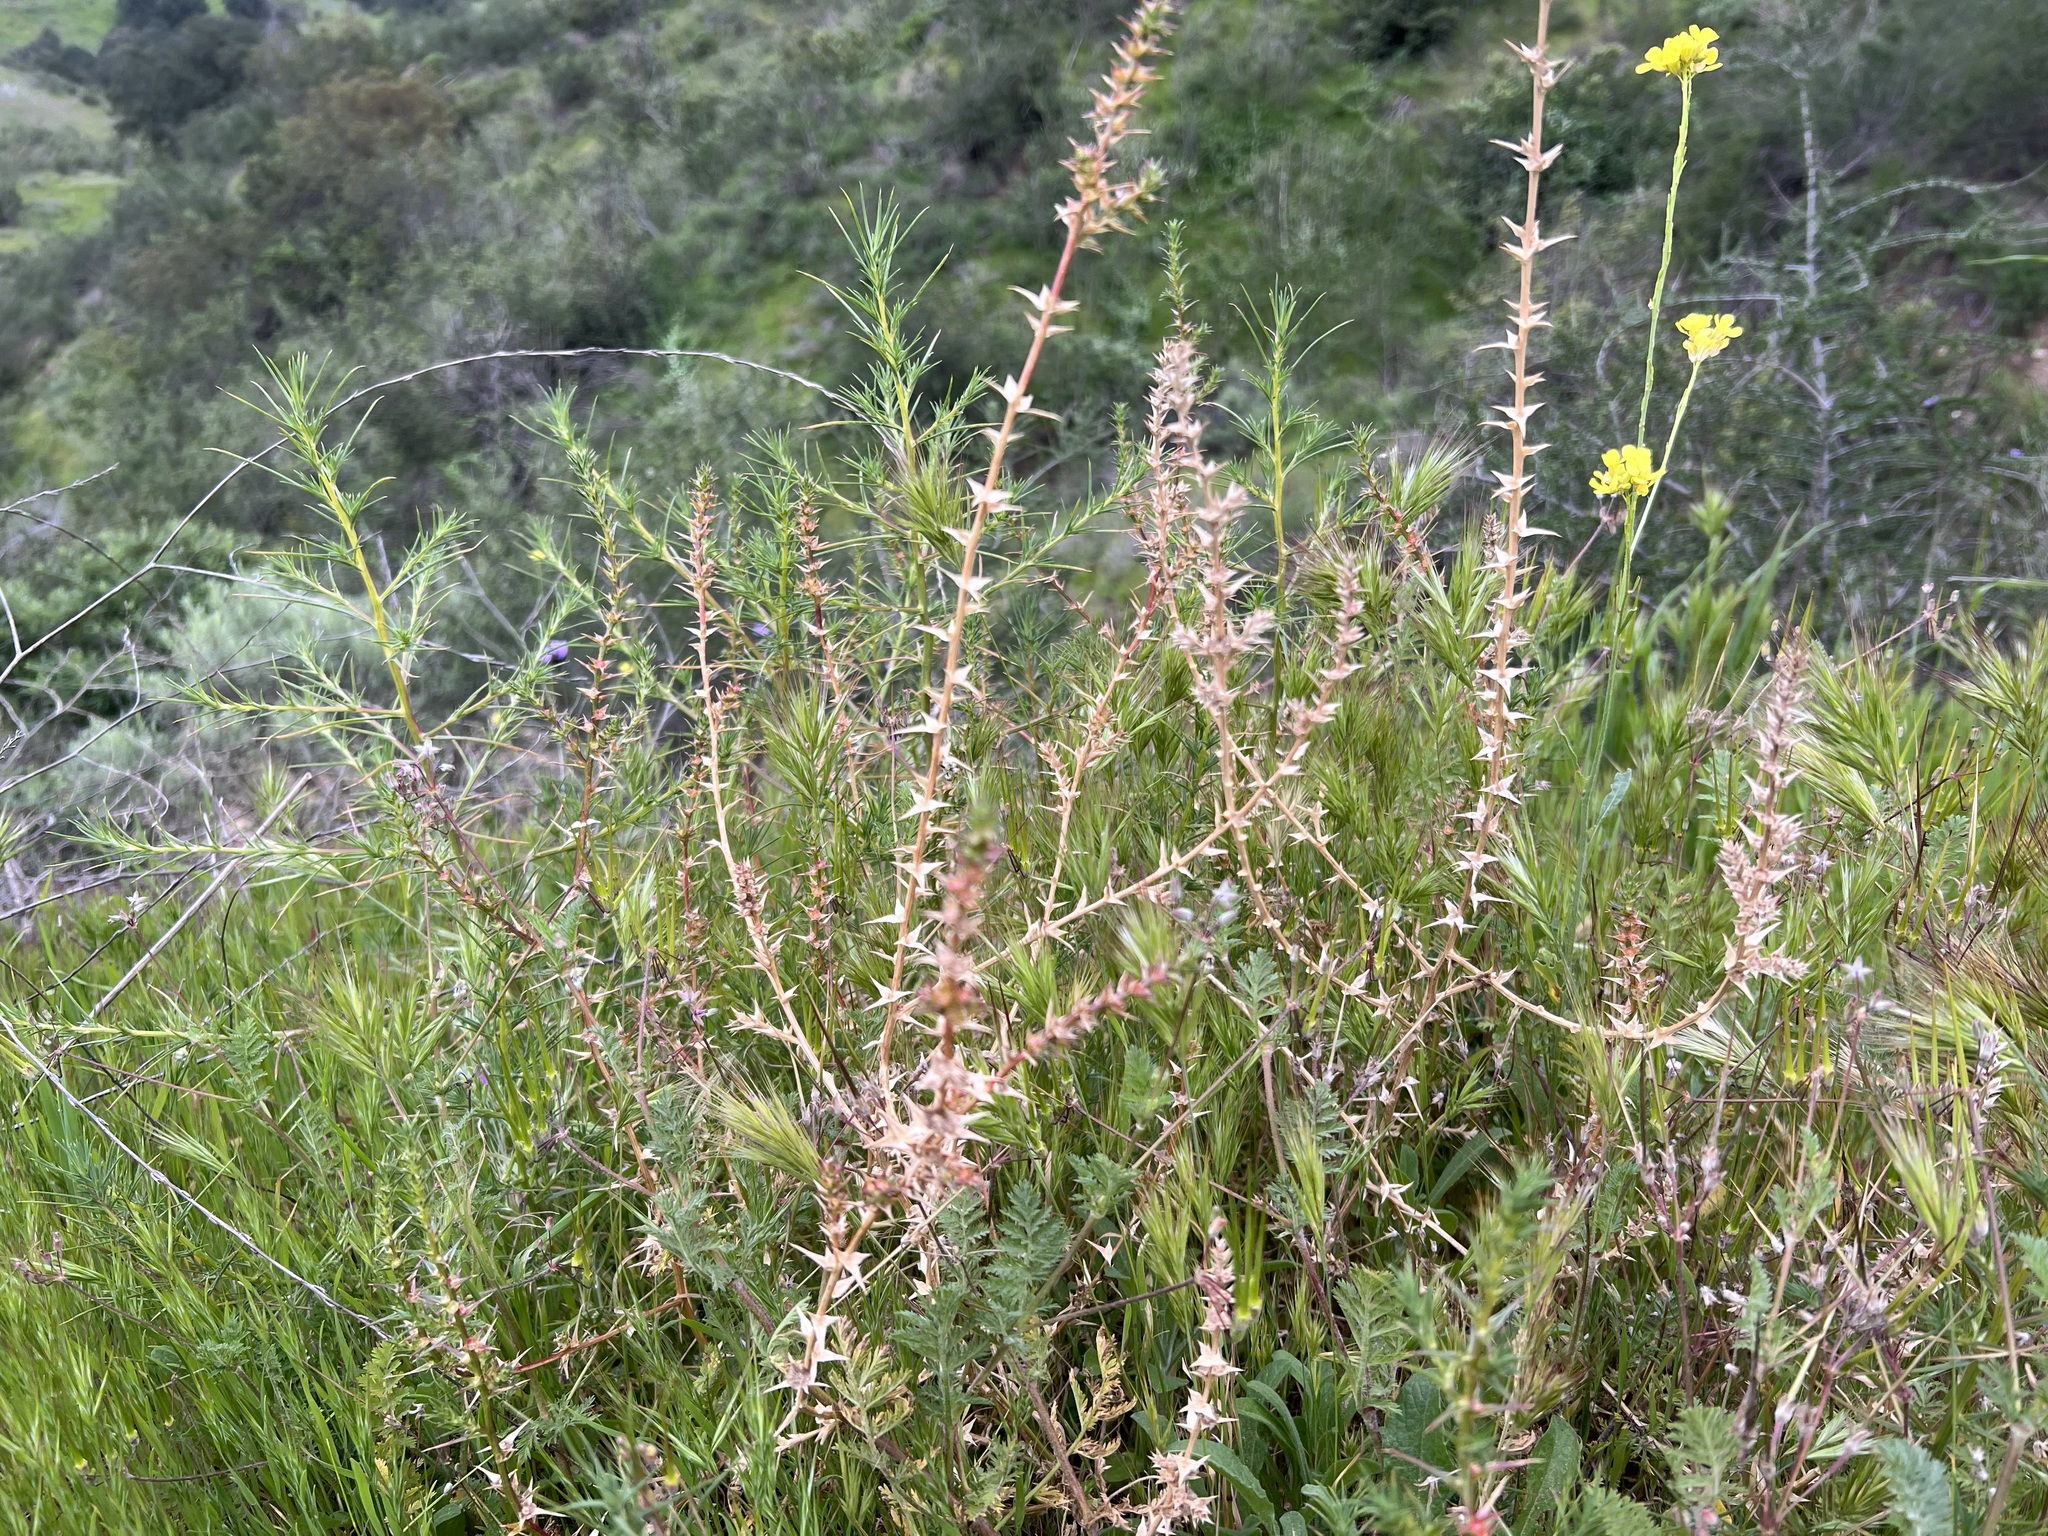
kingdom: Plantae
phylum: Tracheophyta
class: Magnoliopsida
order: Caryophyllales
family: Amaranthaceae
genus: Salsola
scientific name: Salsola australis
